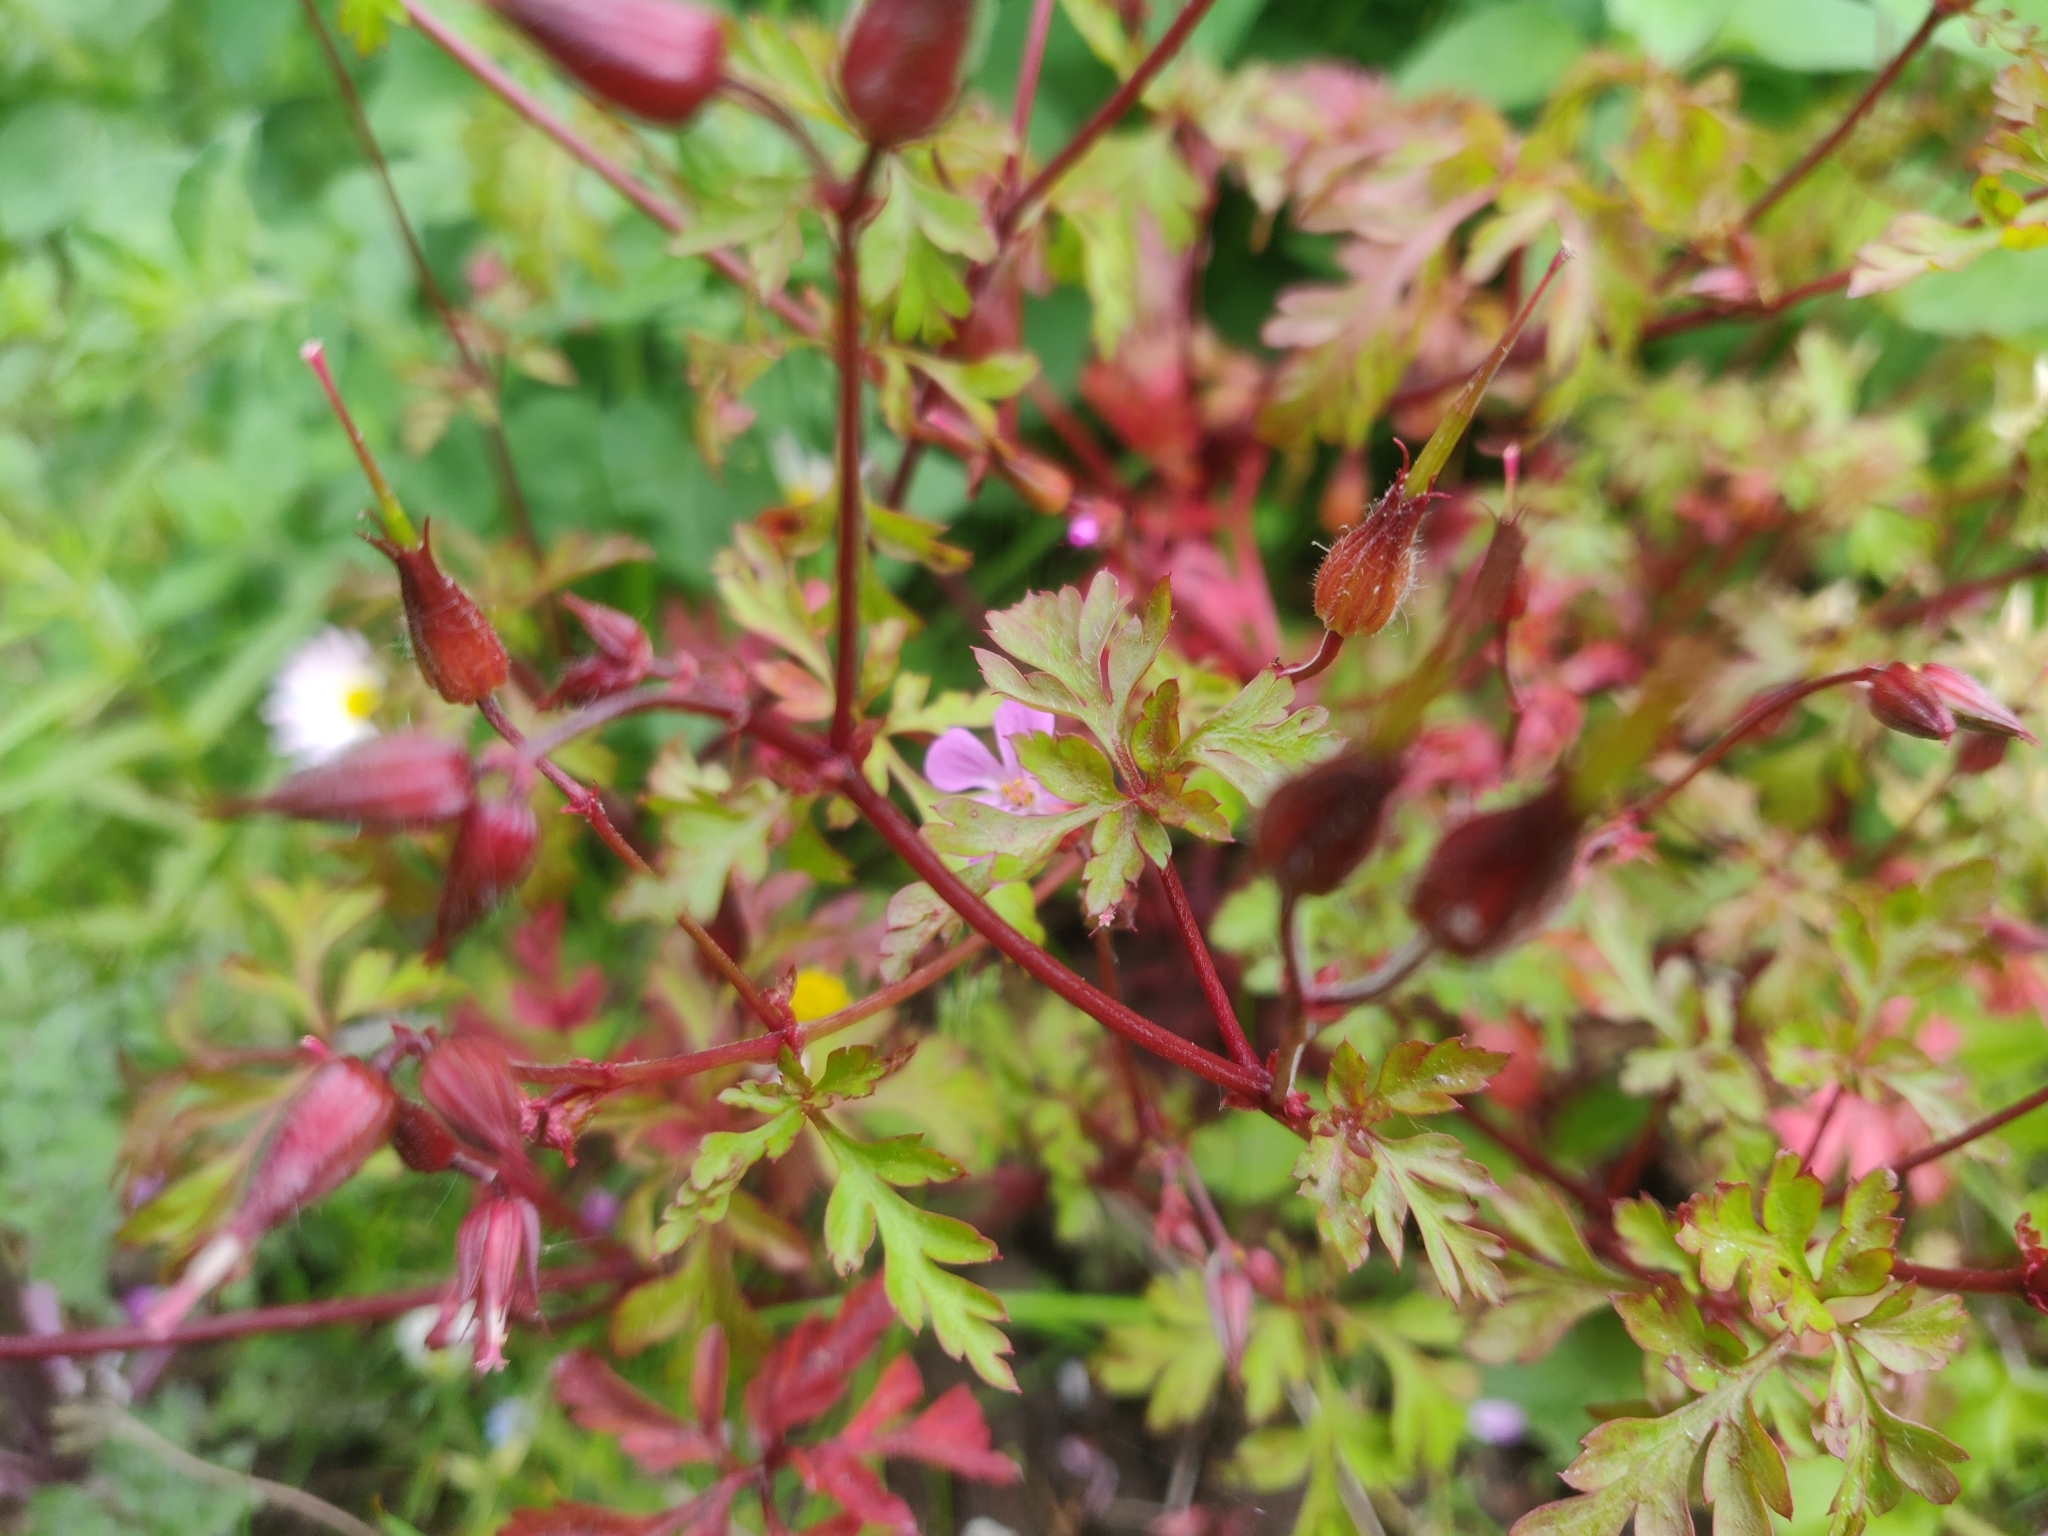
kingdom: Plantae
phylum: Tracheophyta
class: Magnoliopsida
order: Geraniales
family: Geraniaceae
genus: Geranium
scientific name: Geranium robertianum
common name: Herb-robert
